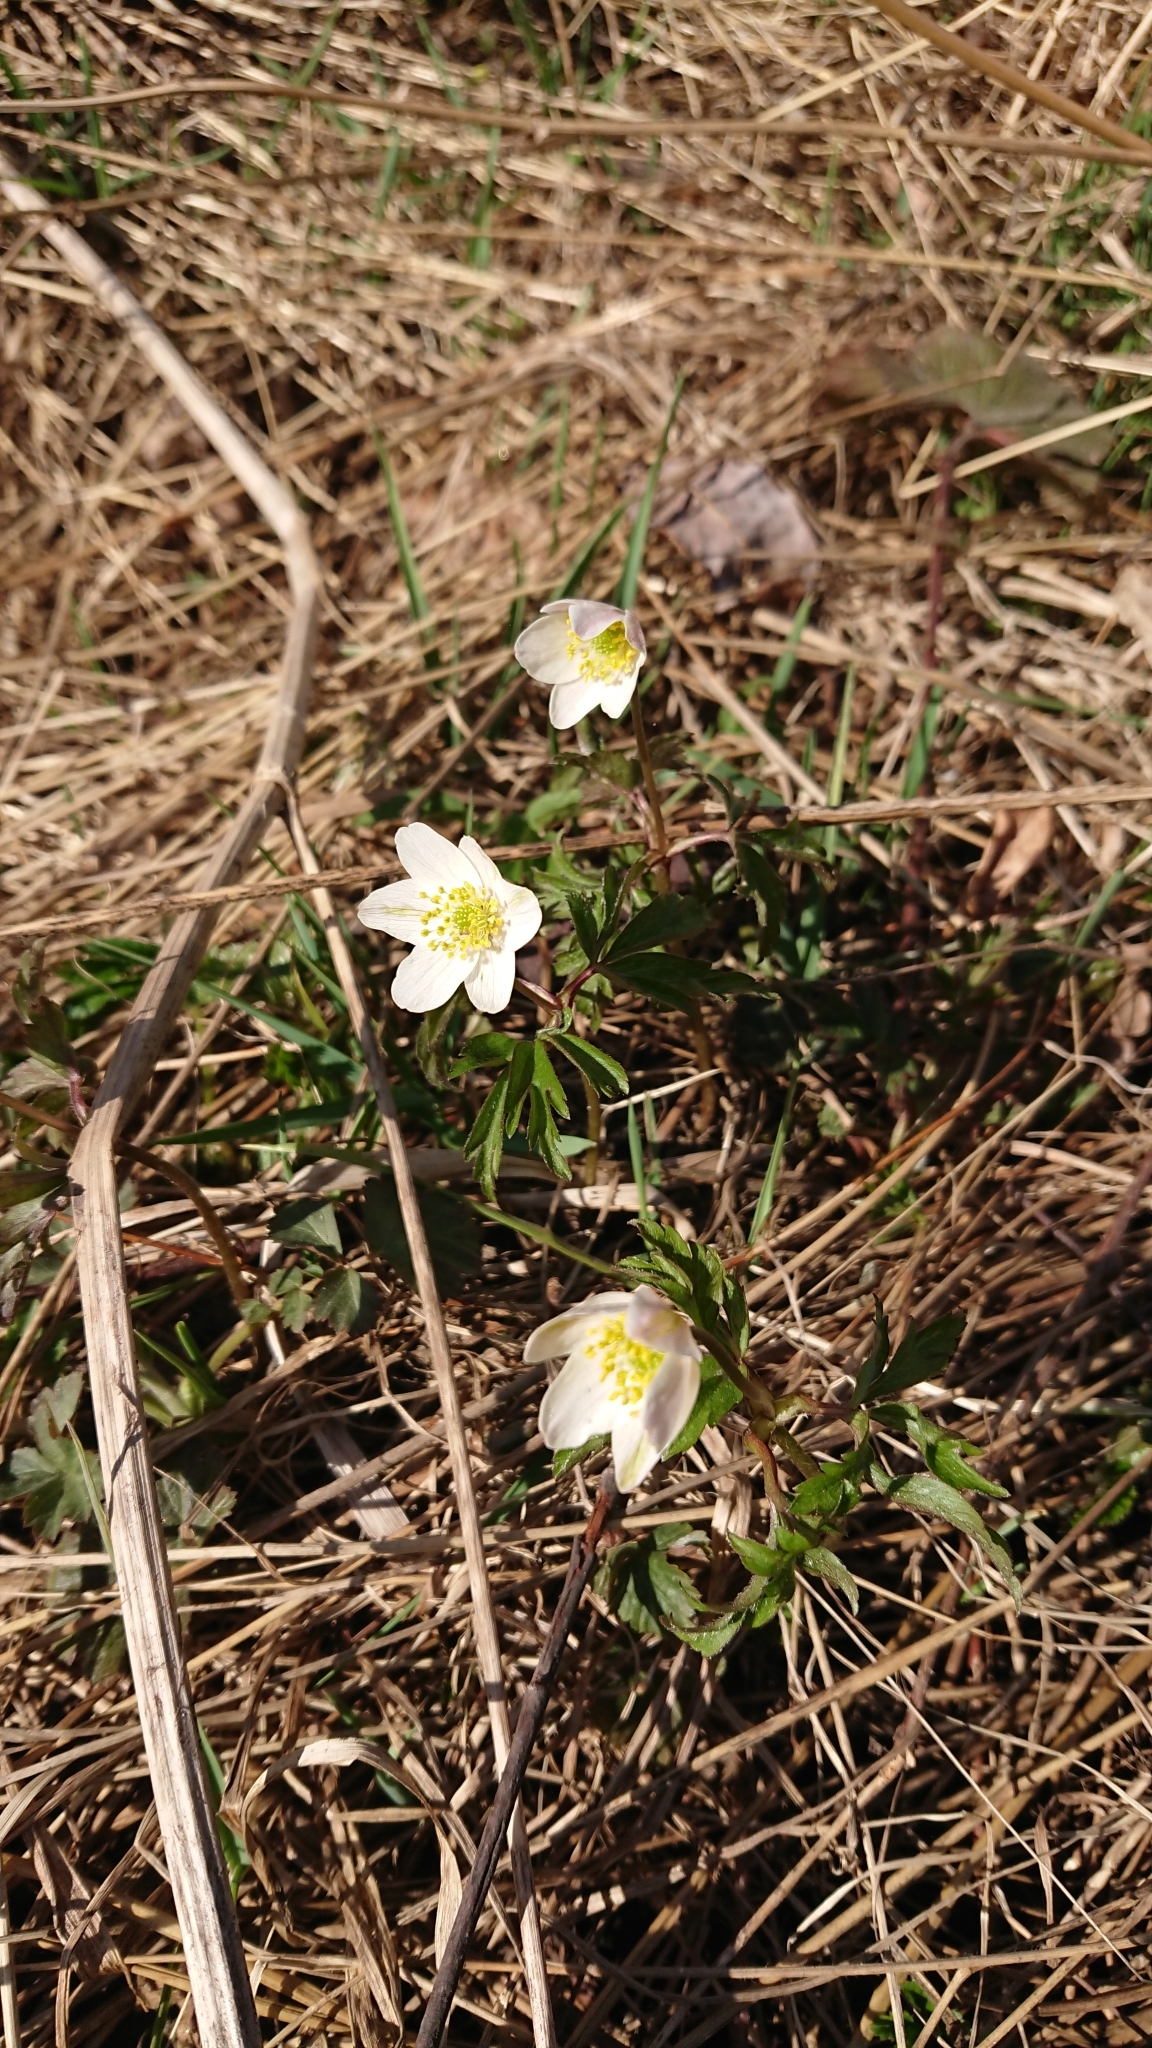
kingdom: Plantae
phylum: Tracheophyta
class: Magnoliopsida
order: Ranunculales
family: Ranunculaceae
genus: Anemone
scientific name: Anemone nemorosa
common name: Wood anemone
